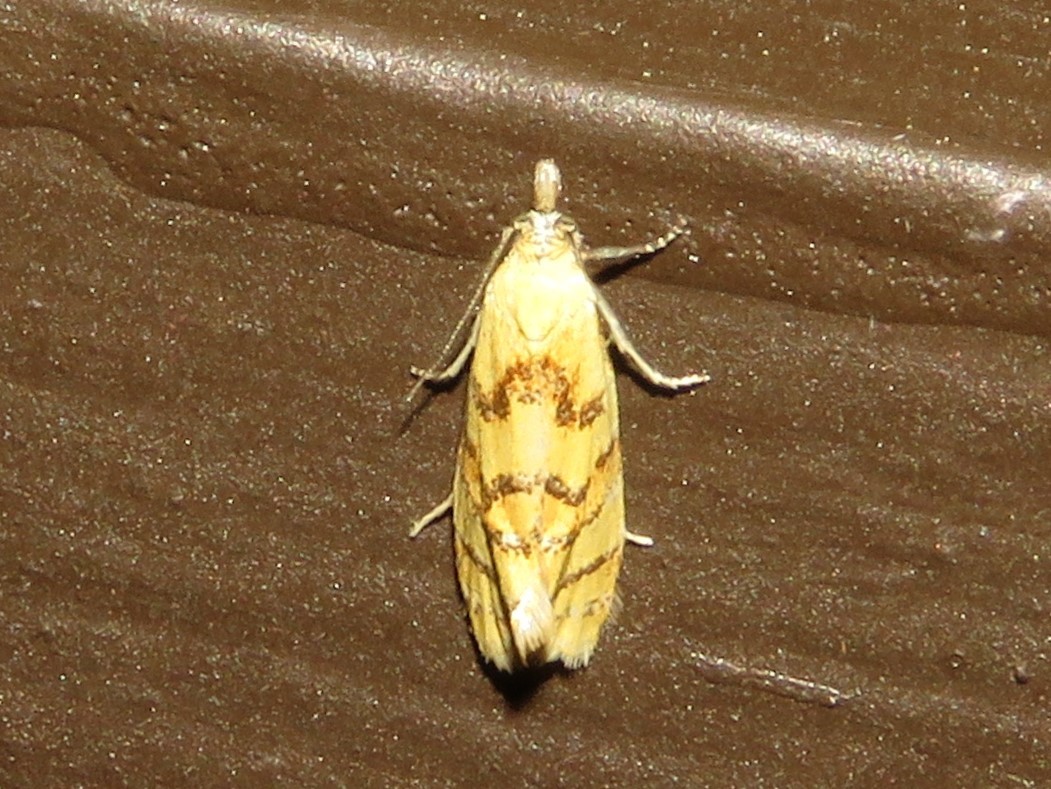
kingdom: Animalia
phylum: Arthropoda
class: Insecta
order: Lepidoptera
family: Tortricidae
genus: Phtheochroa
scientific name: Phtheochroa vitellinana
